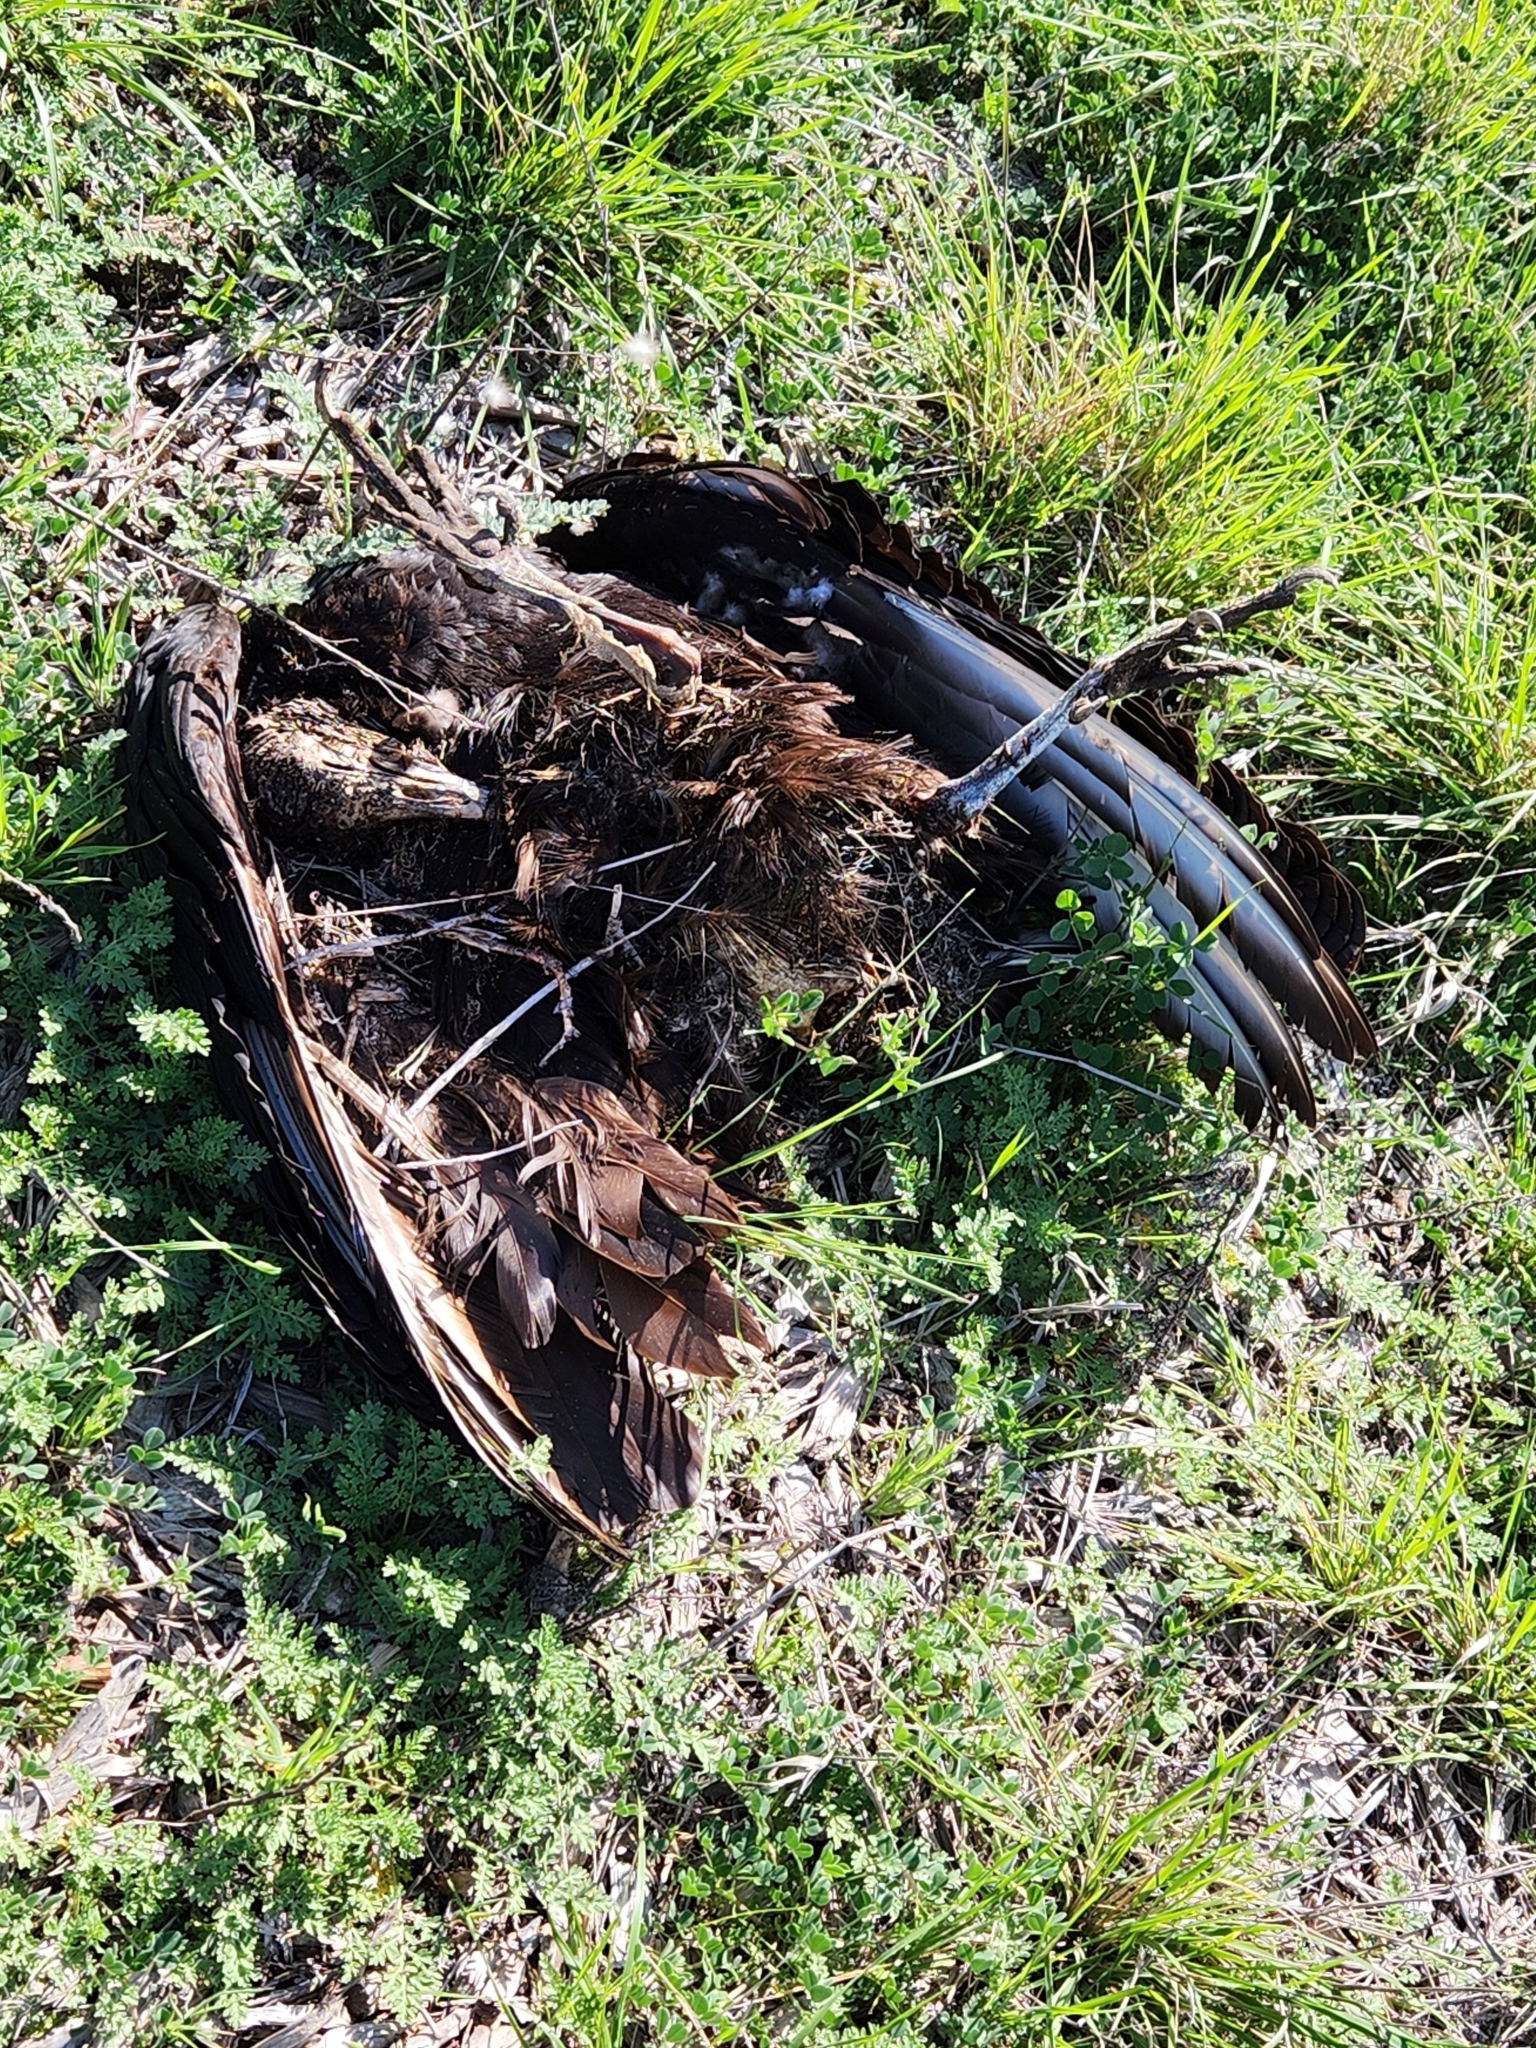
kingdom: Animalia
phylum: Chordata
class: Aves
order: Accipitriformes
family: Cathartidae
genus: Cathartes
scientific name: Cathartes aura
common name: Turkey vulture
